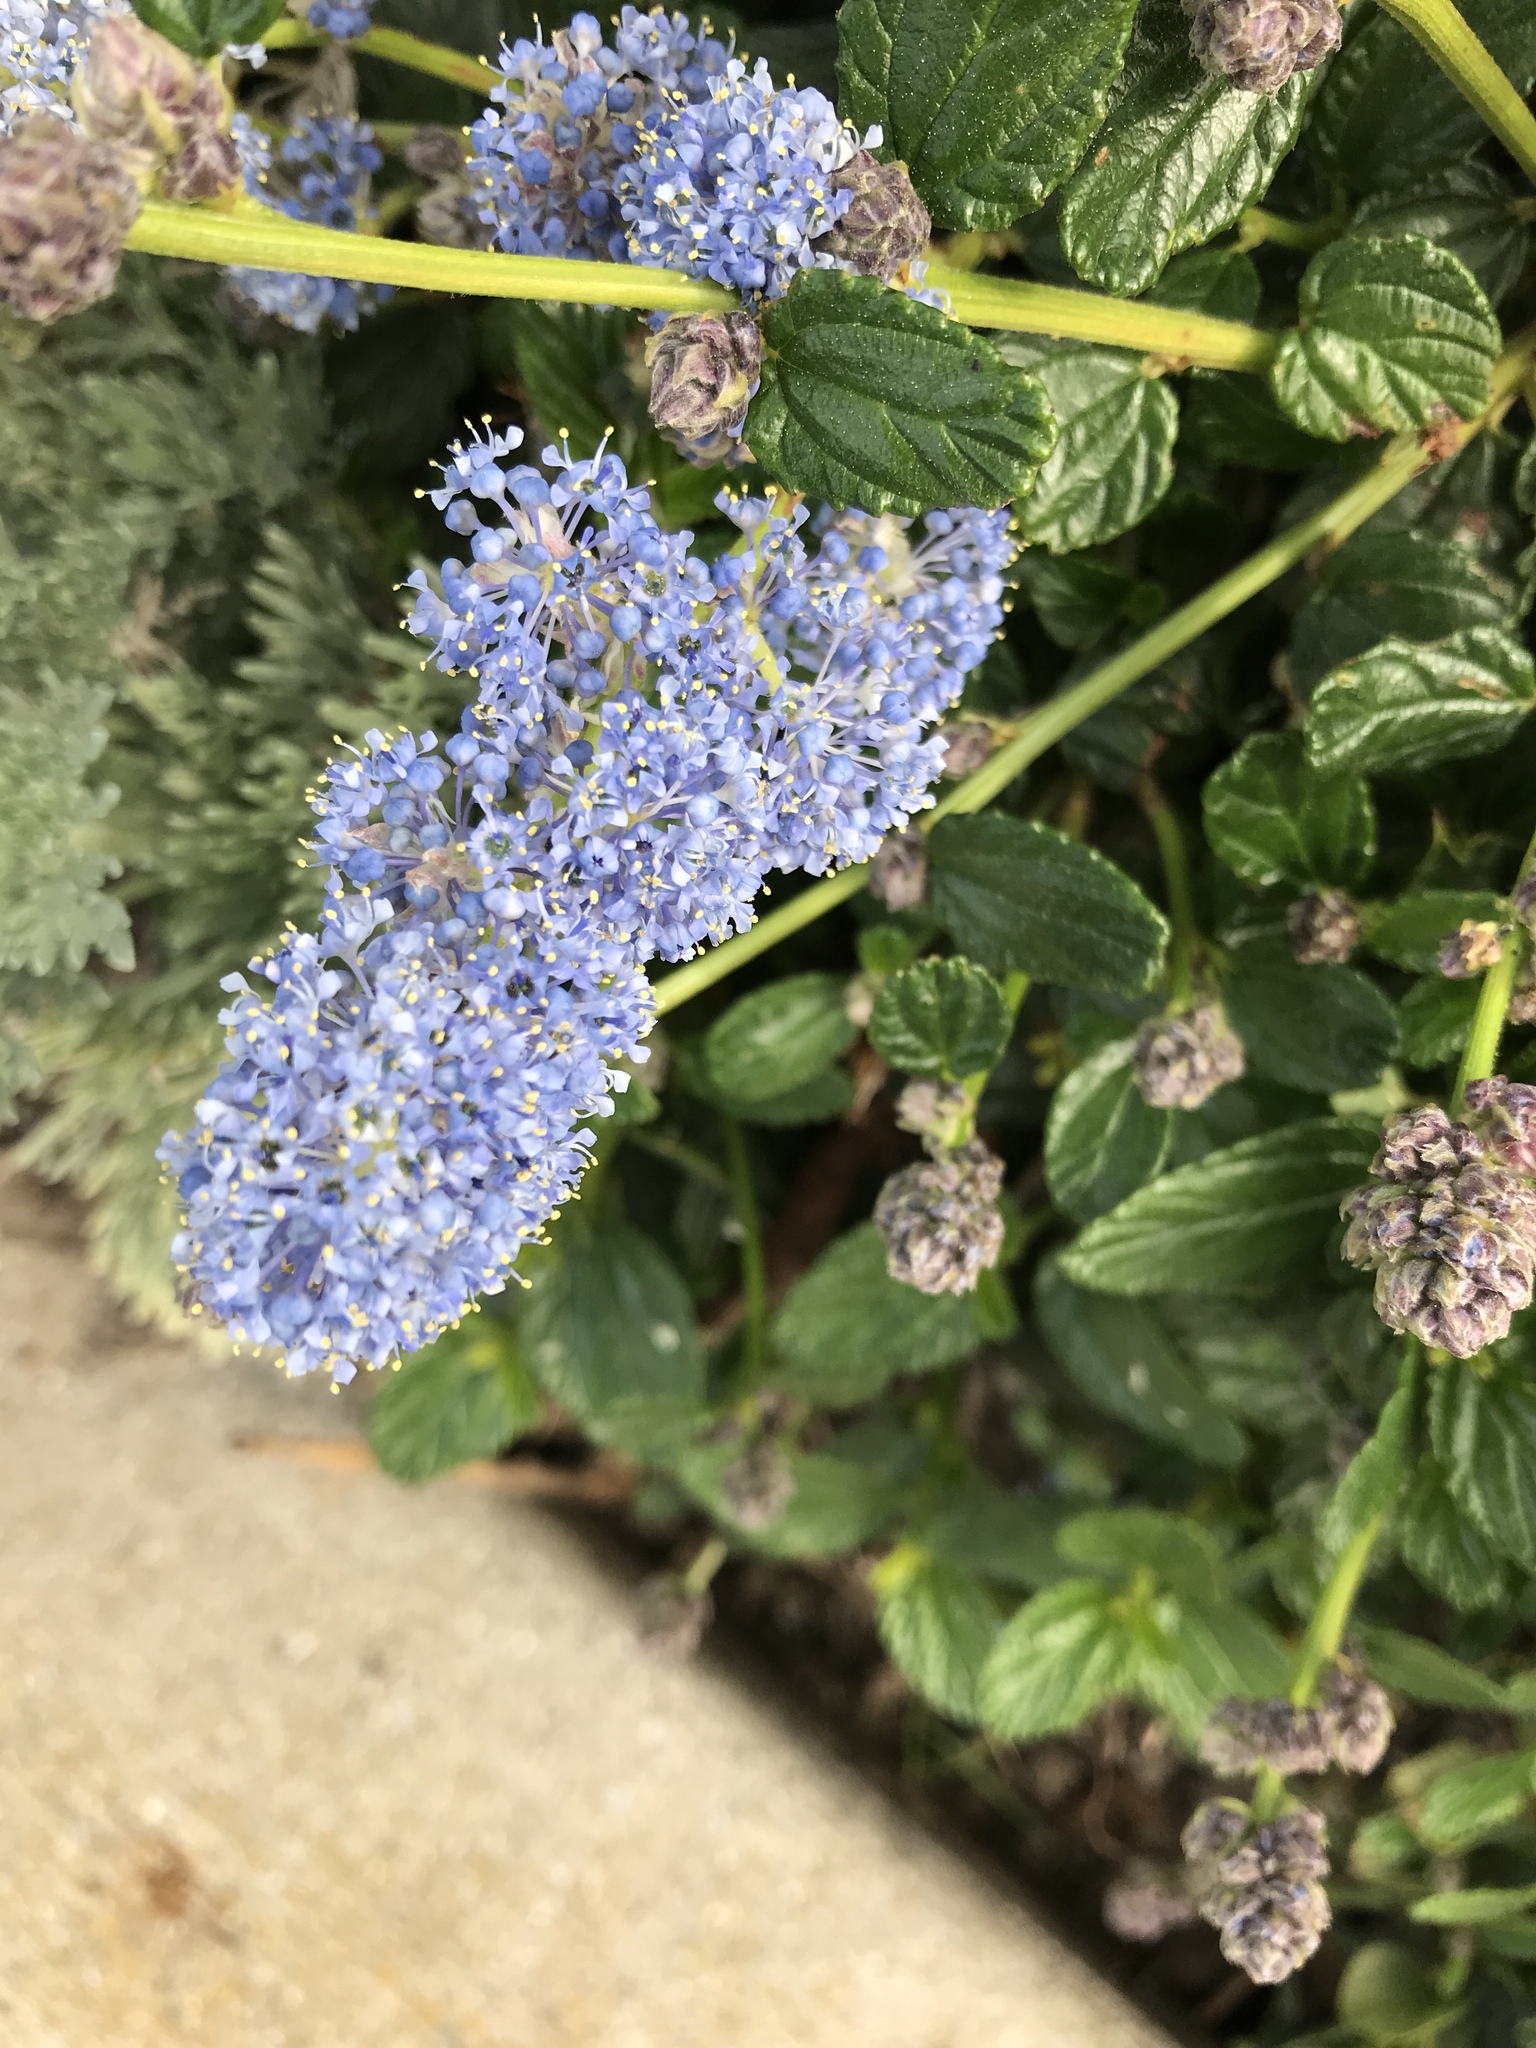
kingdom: Plantae
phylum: Tracheophyta
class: Magnoliopsida
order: Rosales
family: Rhamnaceae
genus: Ceanothus
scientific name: Ceanothus thyrsiflorus
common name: California-lilac
